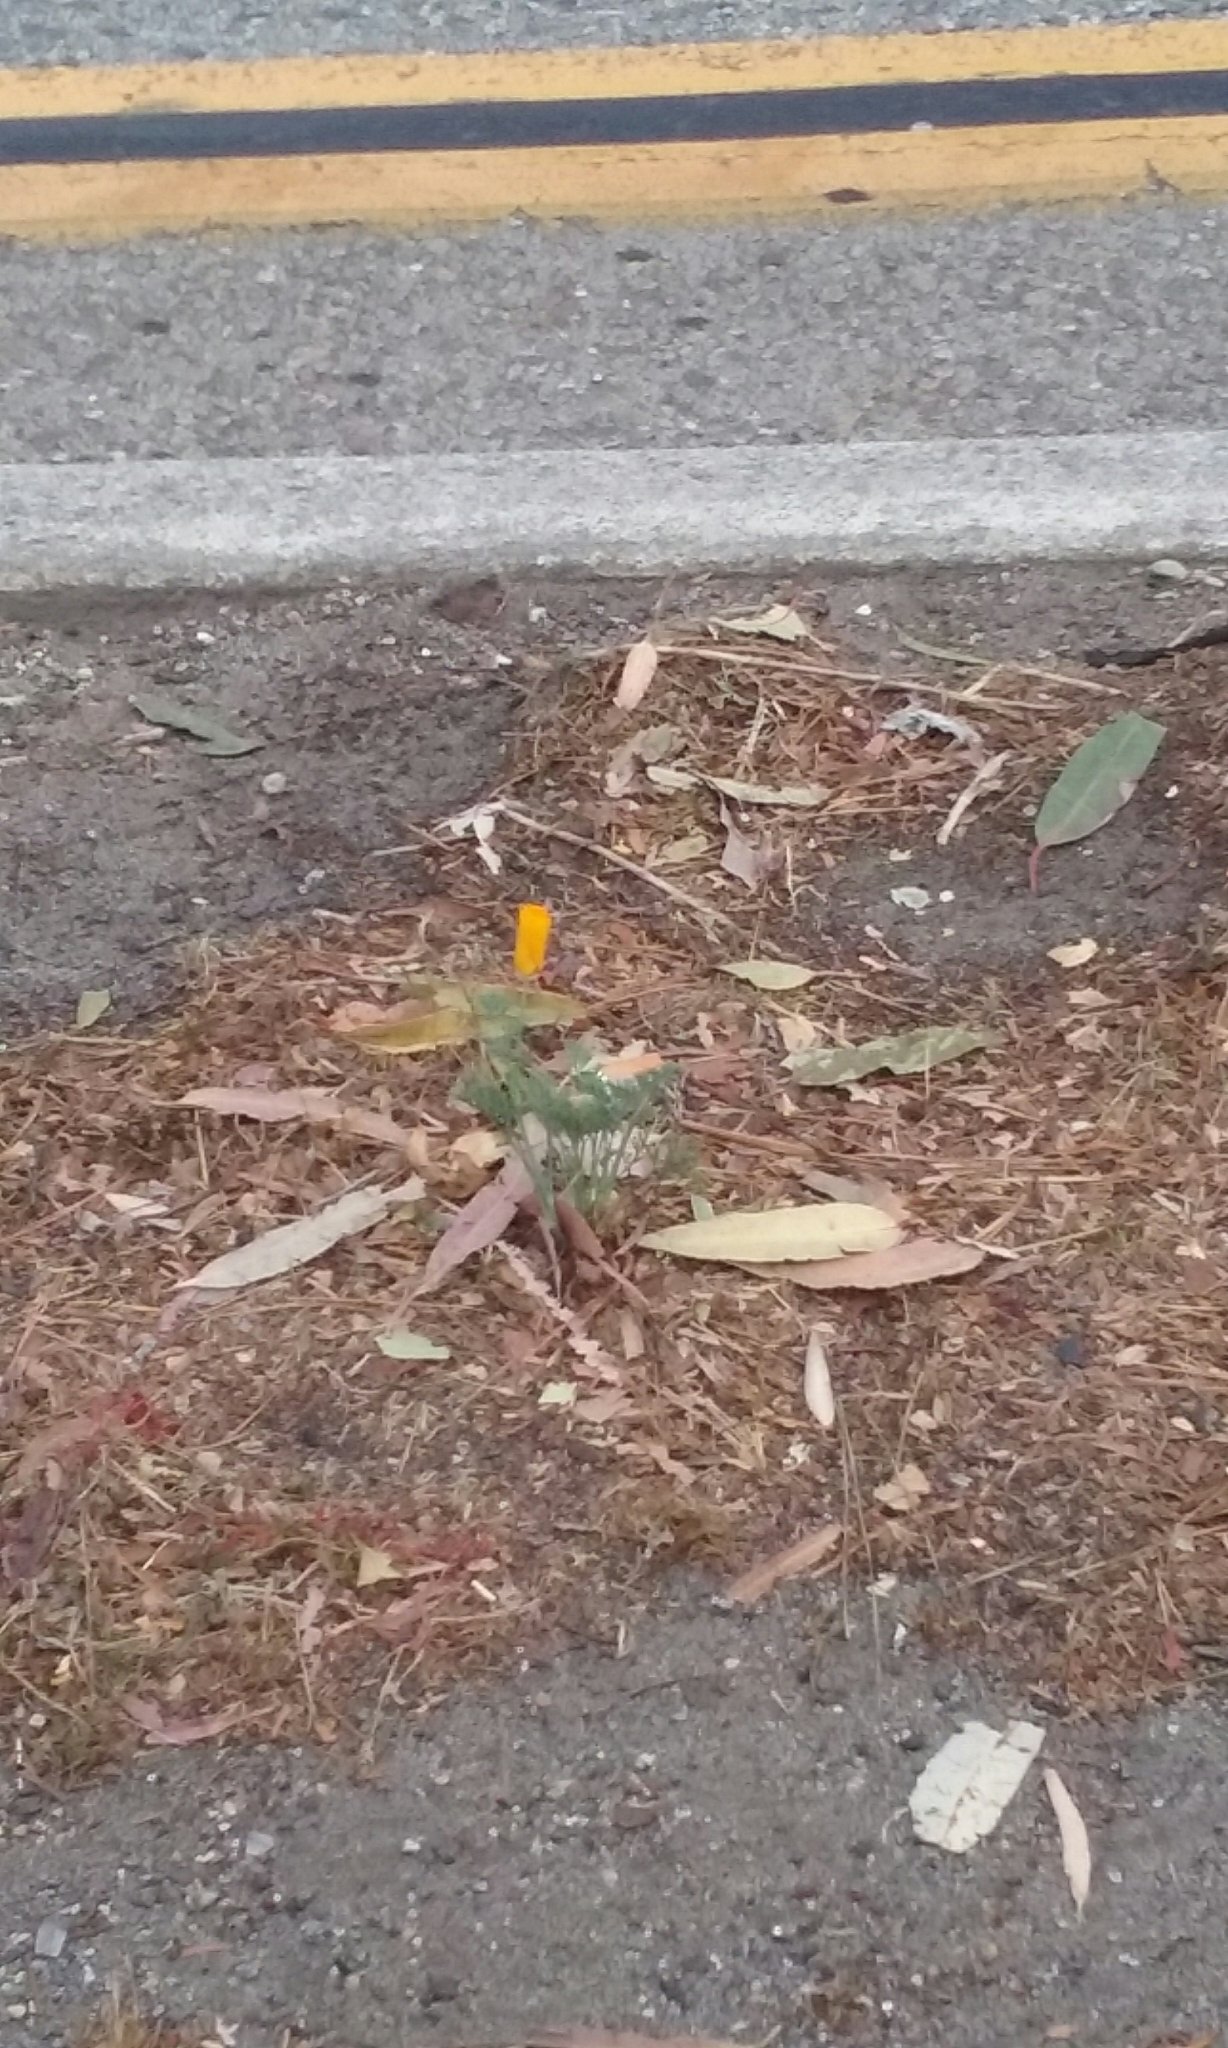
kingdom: Plantae
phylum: Tracheophyta
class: Magnoliopsida
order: Ranunculales
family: Papaveraceae
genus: Eschscholzia
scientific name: Eschscholzia californica
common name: California poppy
